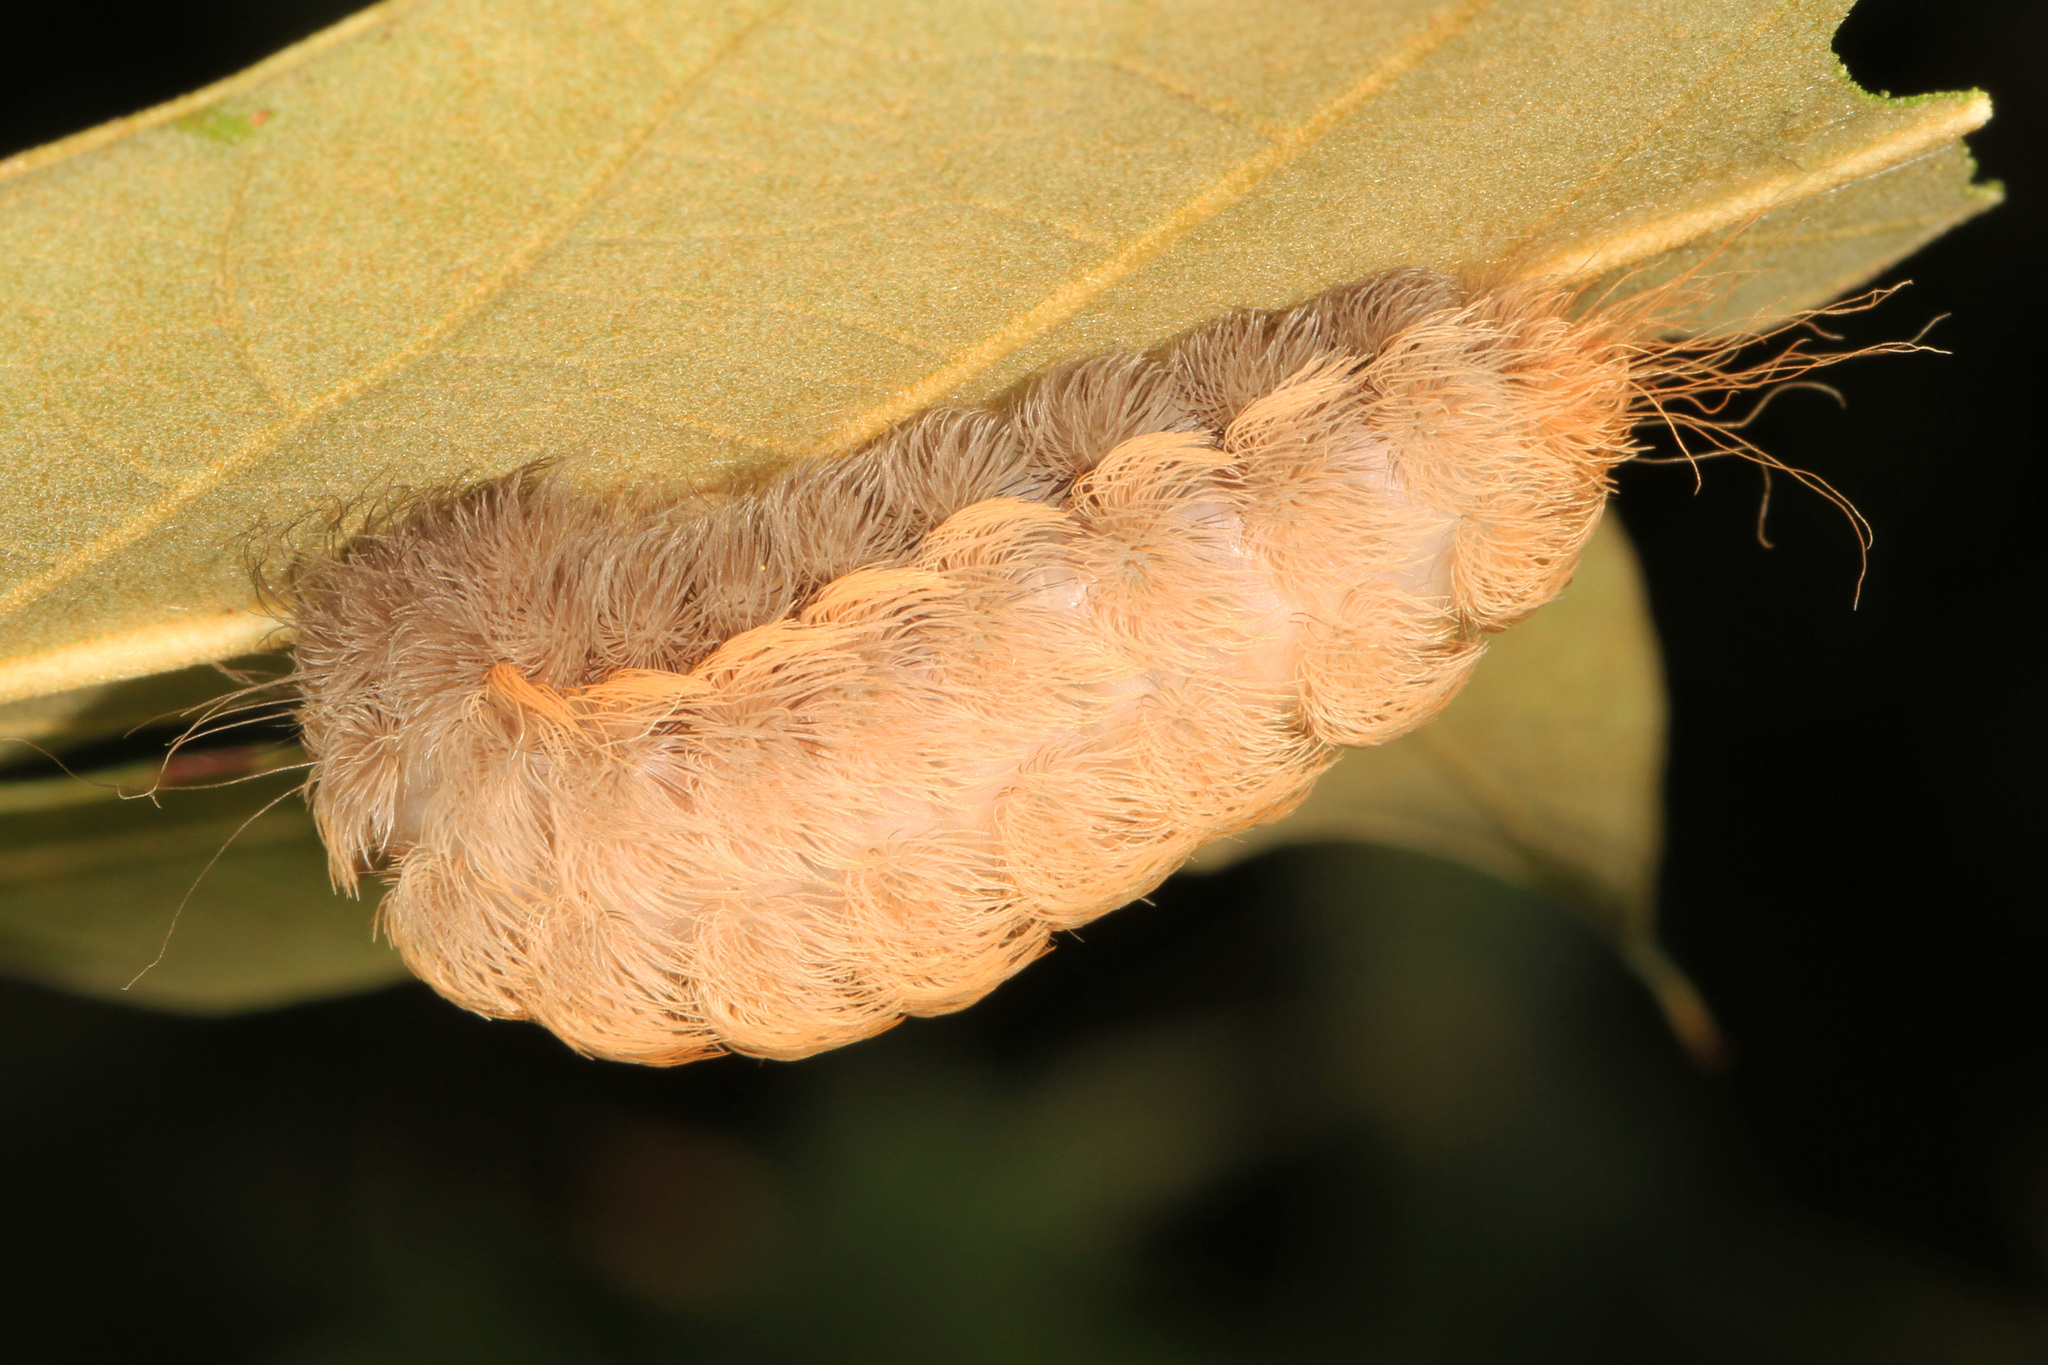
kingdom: Animalia
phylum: Arthropoda
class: Insecta
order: Lepidoptera
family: Megalopygidae
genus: Megalopyge
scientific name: Megalopyge crispata
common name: Black-waved flannel moth
